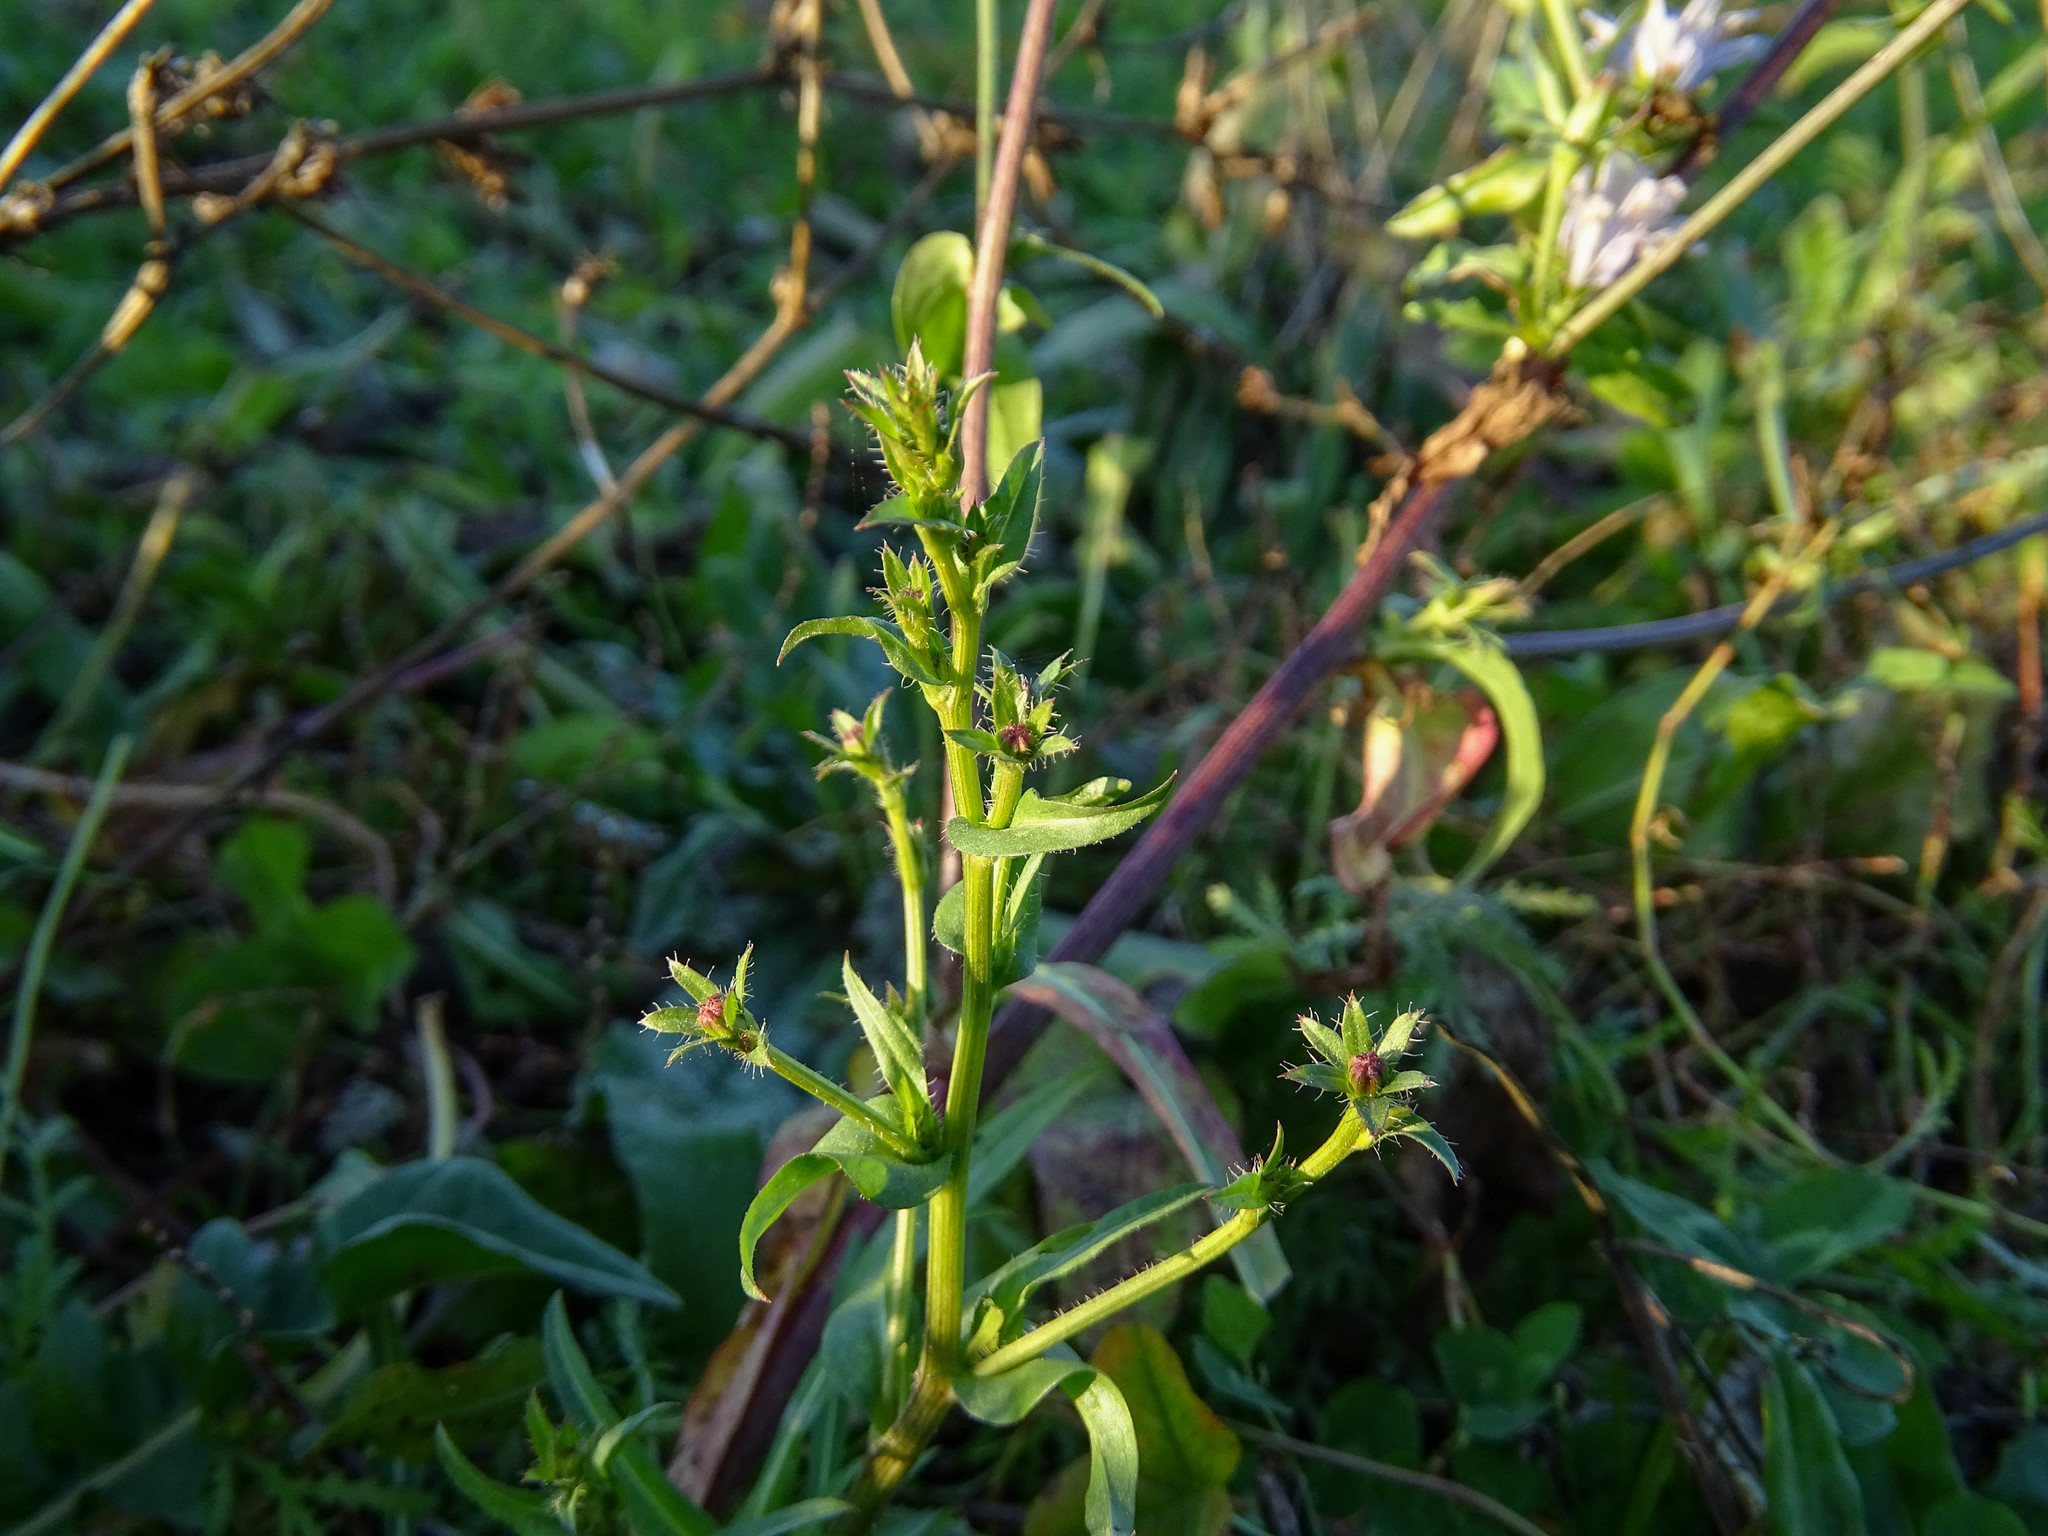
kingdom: Plantae
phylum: Tracheophyta
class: Magnoliopsida
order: Asterales
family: Asteraceae
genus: Cichorium
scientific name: Cichorium intybus
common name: Chicory
